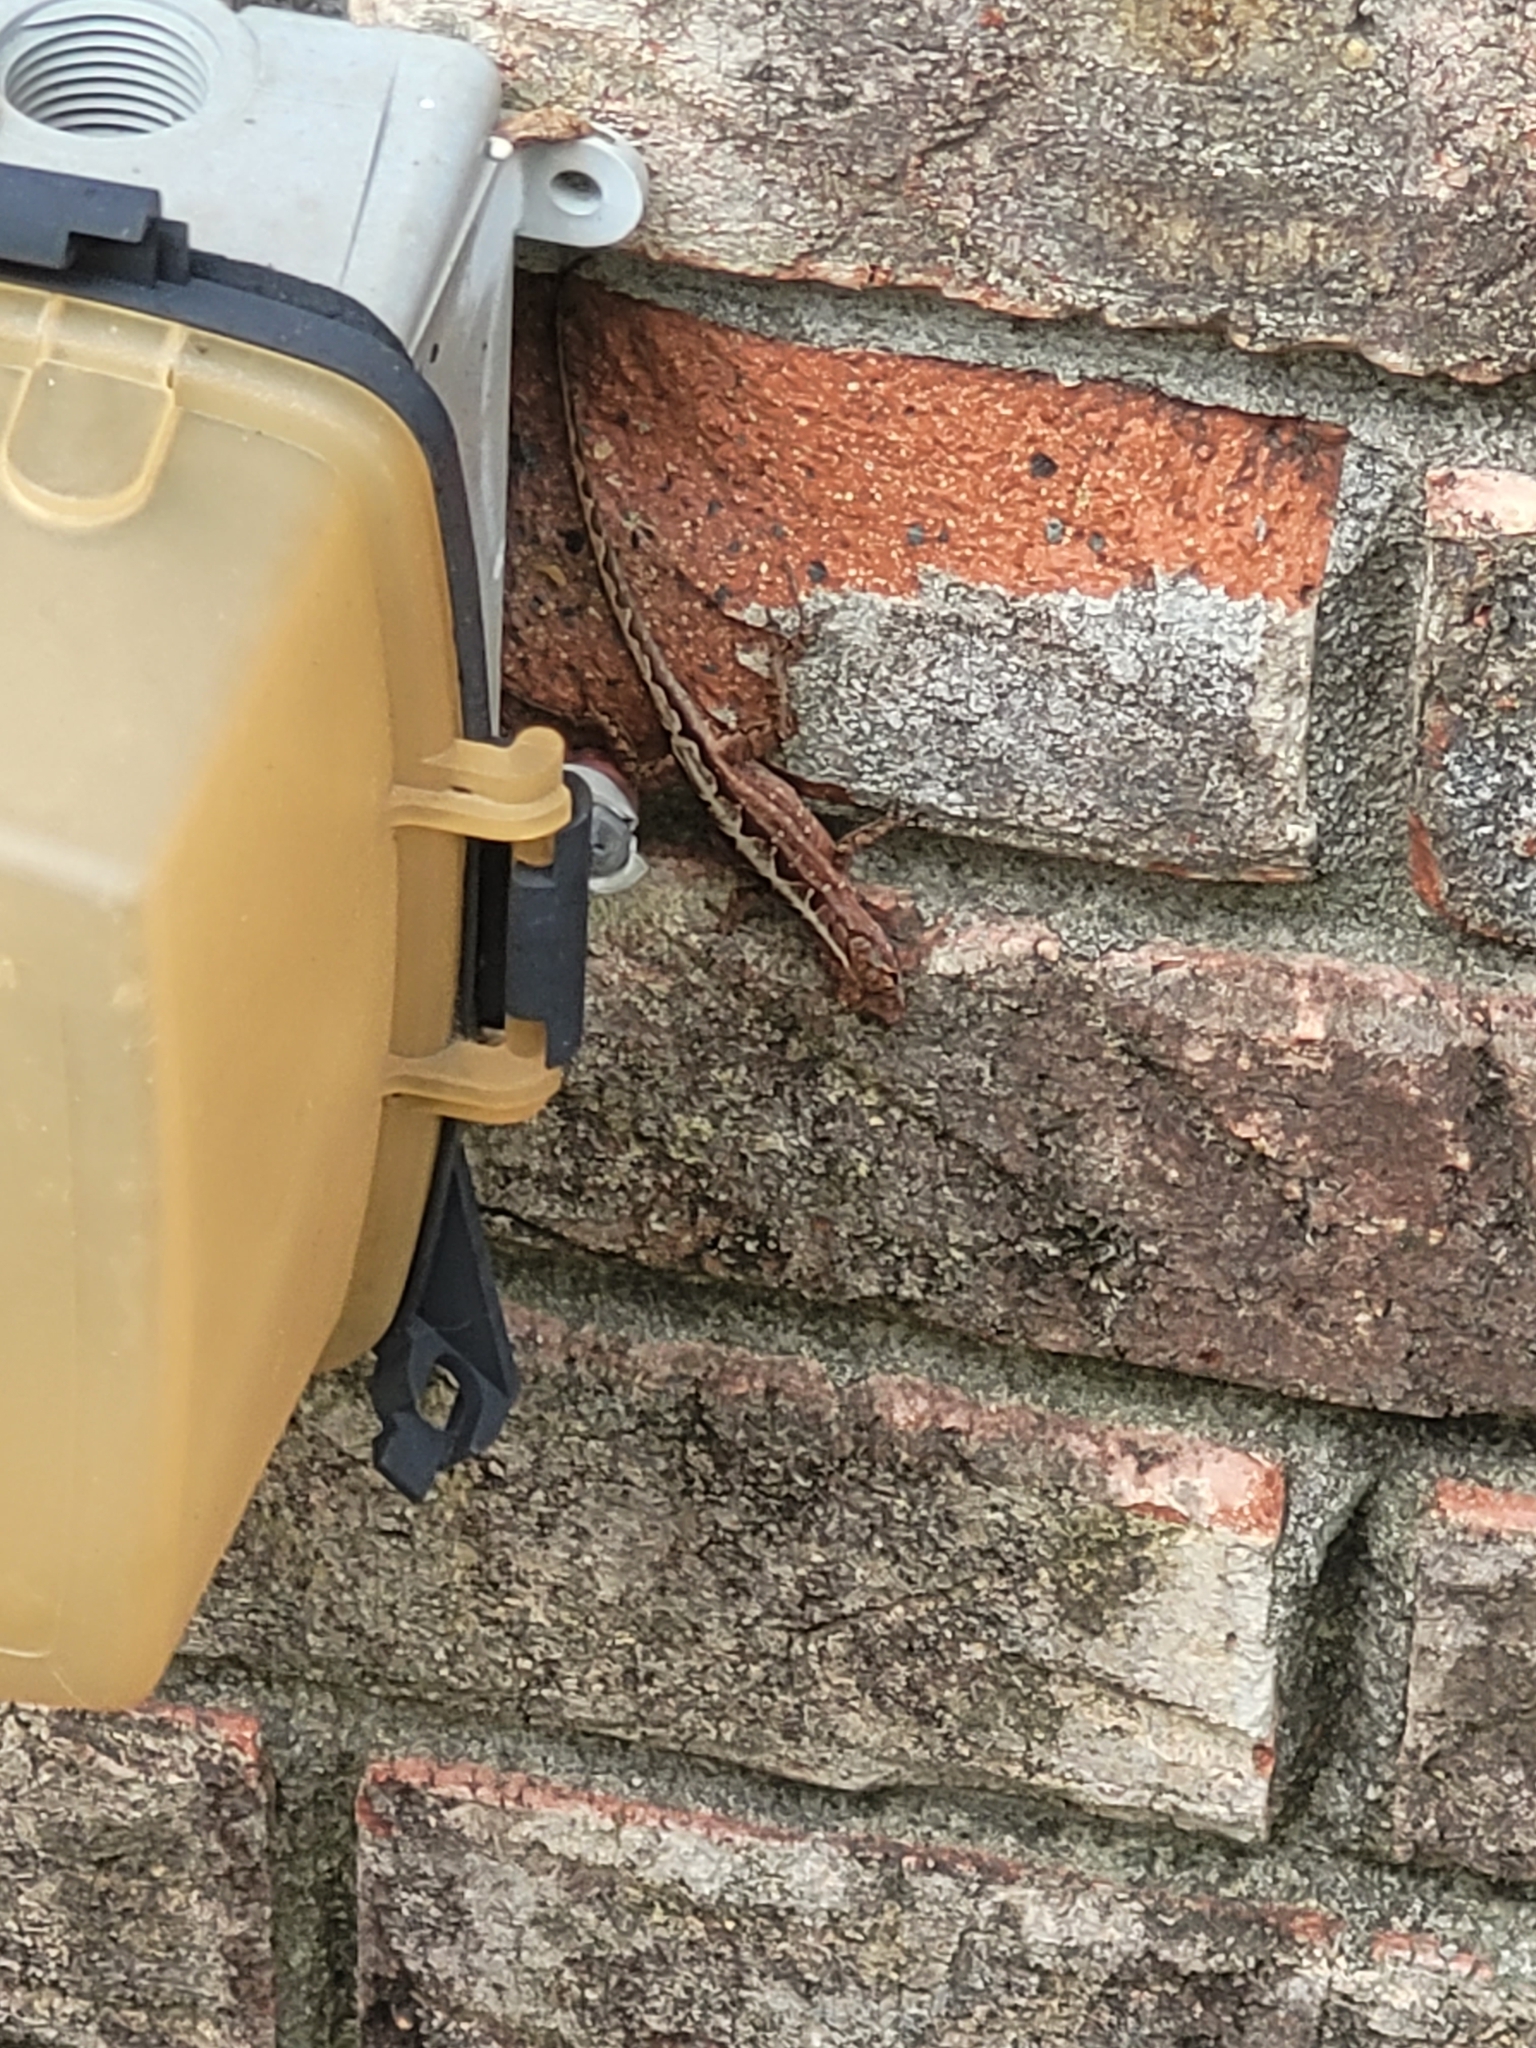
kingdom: Animalia
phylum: Chordata
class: Squamata
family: Dactyloidae
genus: Anolis
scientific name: Anolis sagrei
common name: Brown anole
